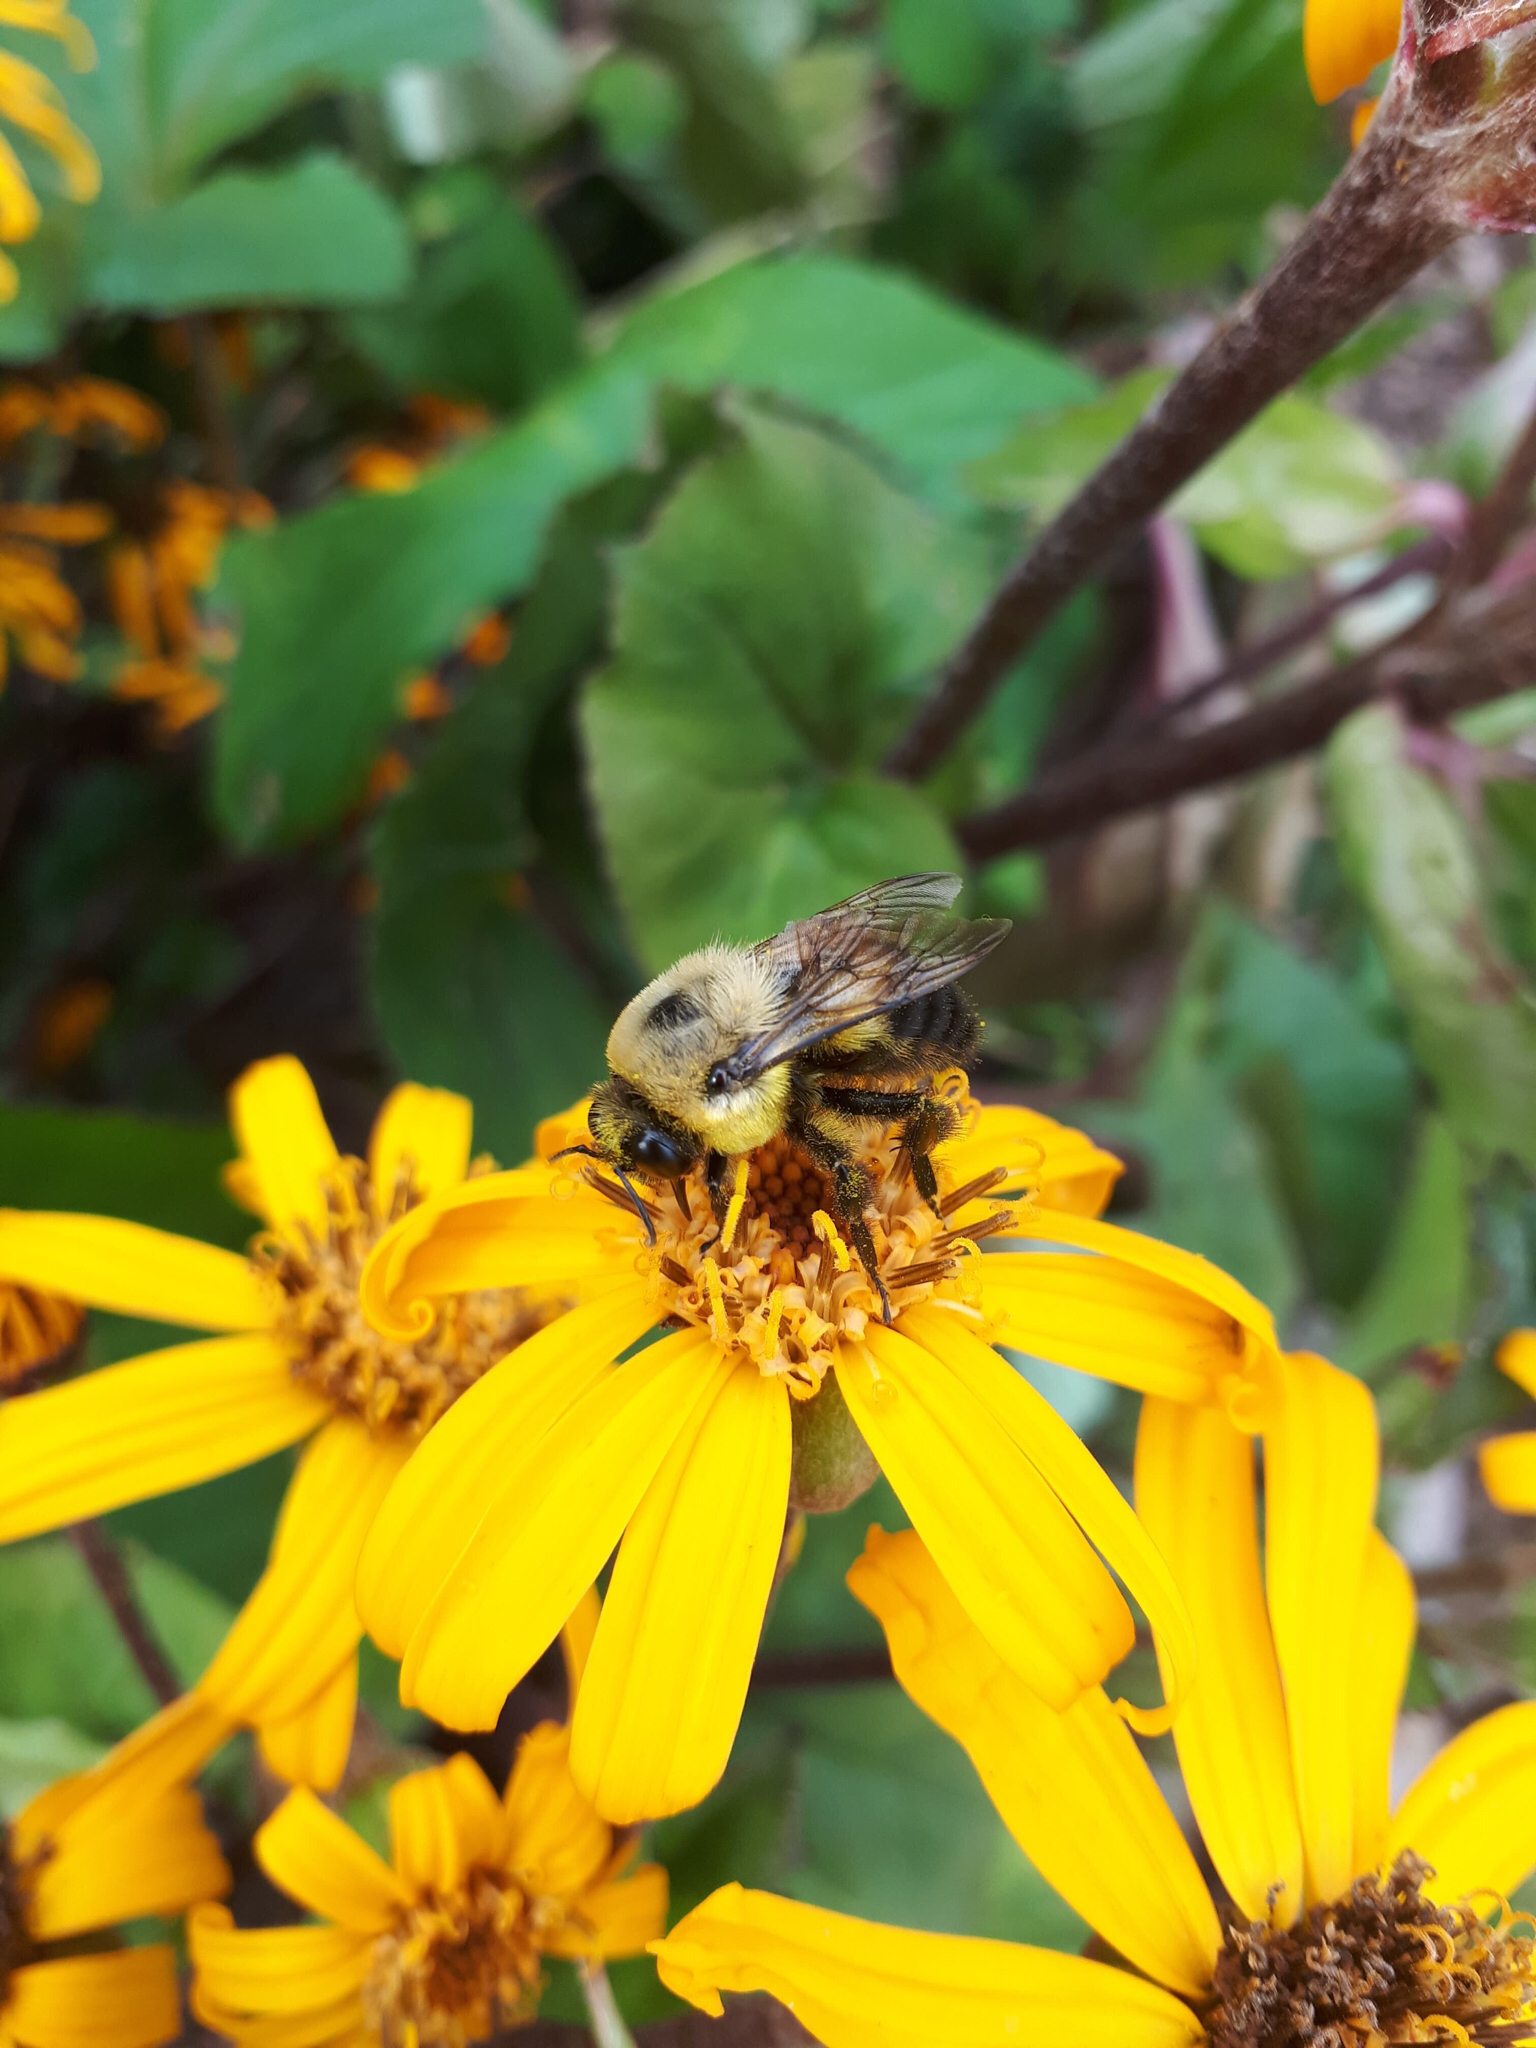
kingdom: Animalia
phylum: Arthropoda
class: Insecta
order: Hymenoptera
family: Apidae
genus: Bombus
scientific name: Bombus griseocollis
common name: Brown-belted bumble bee
